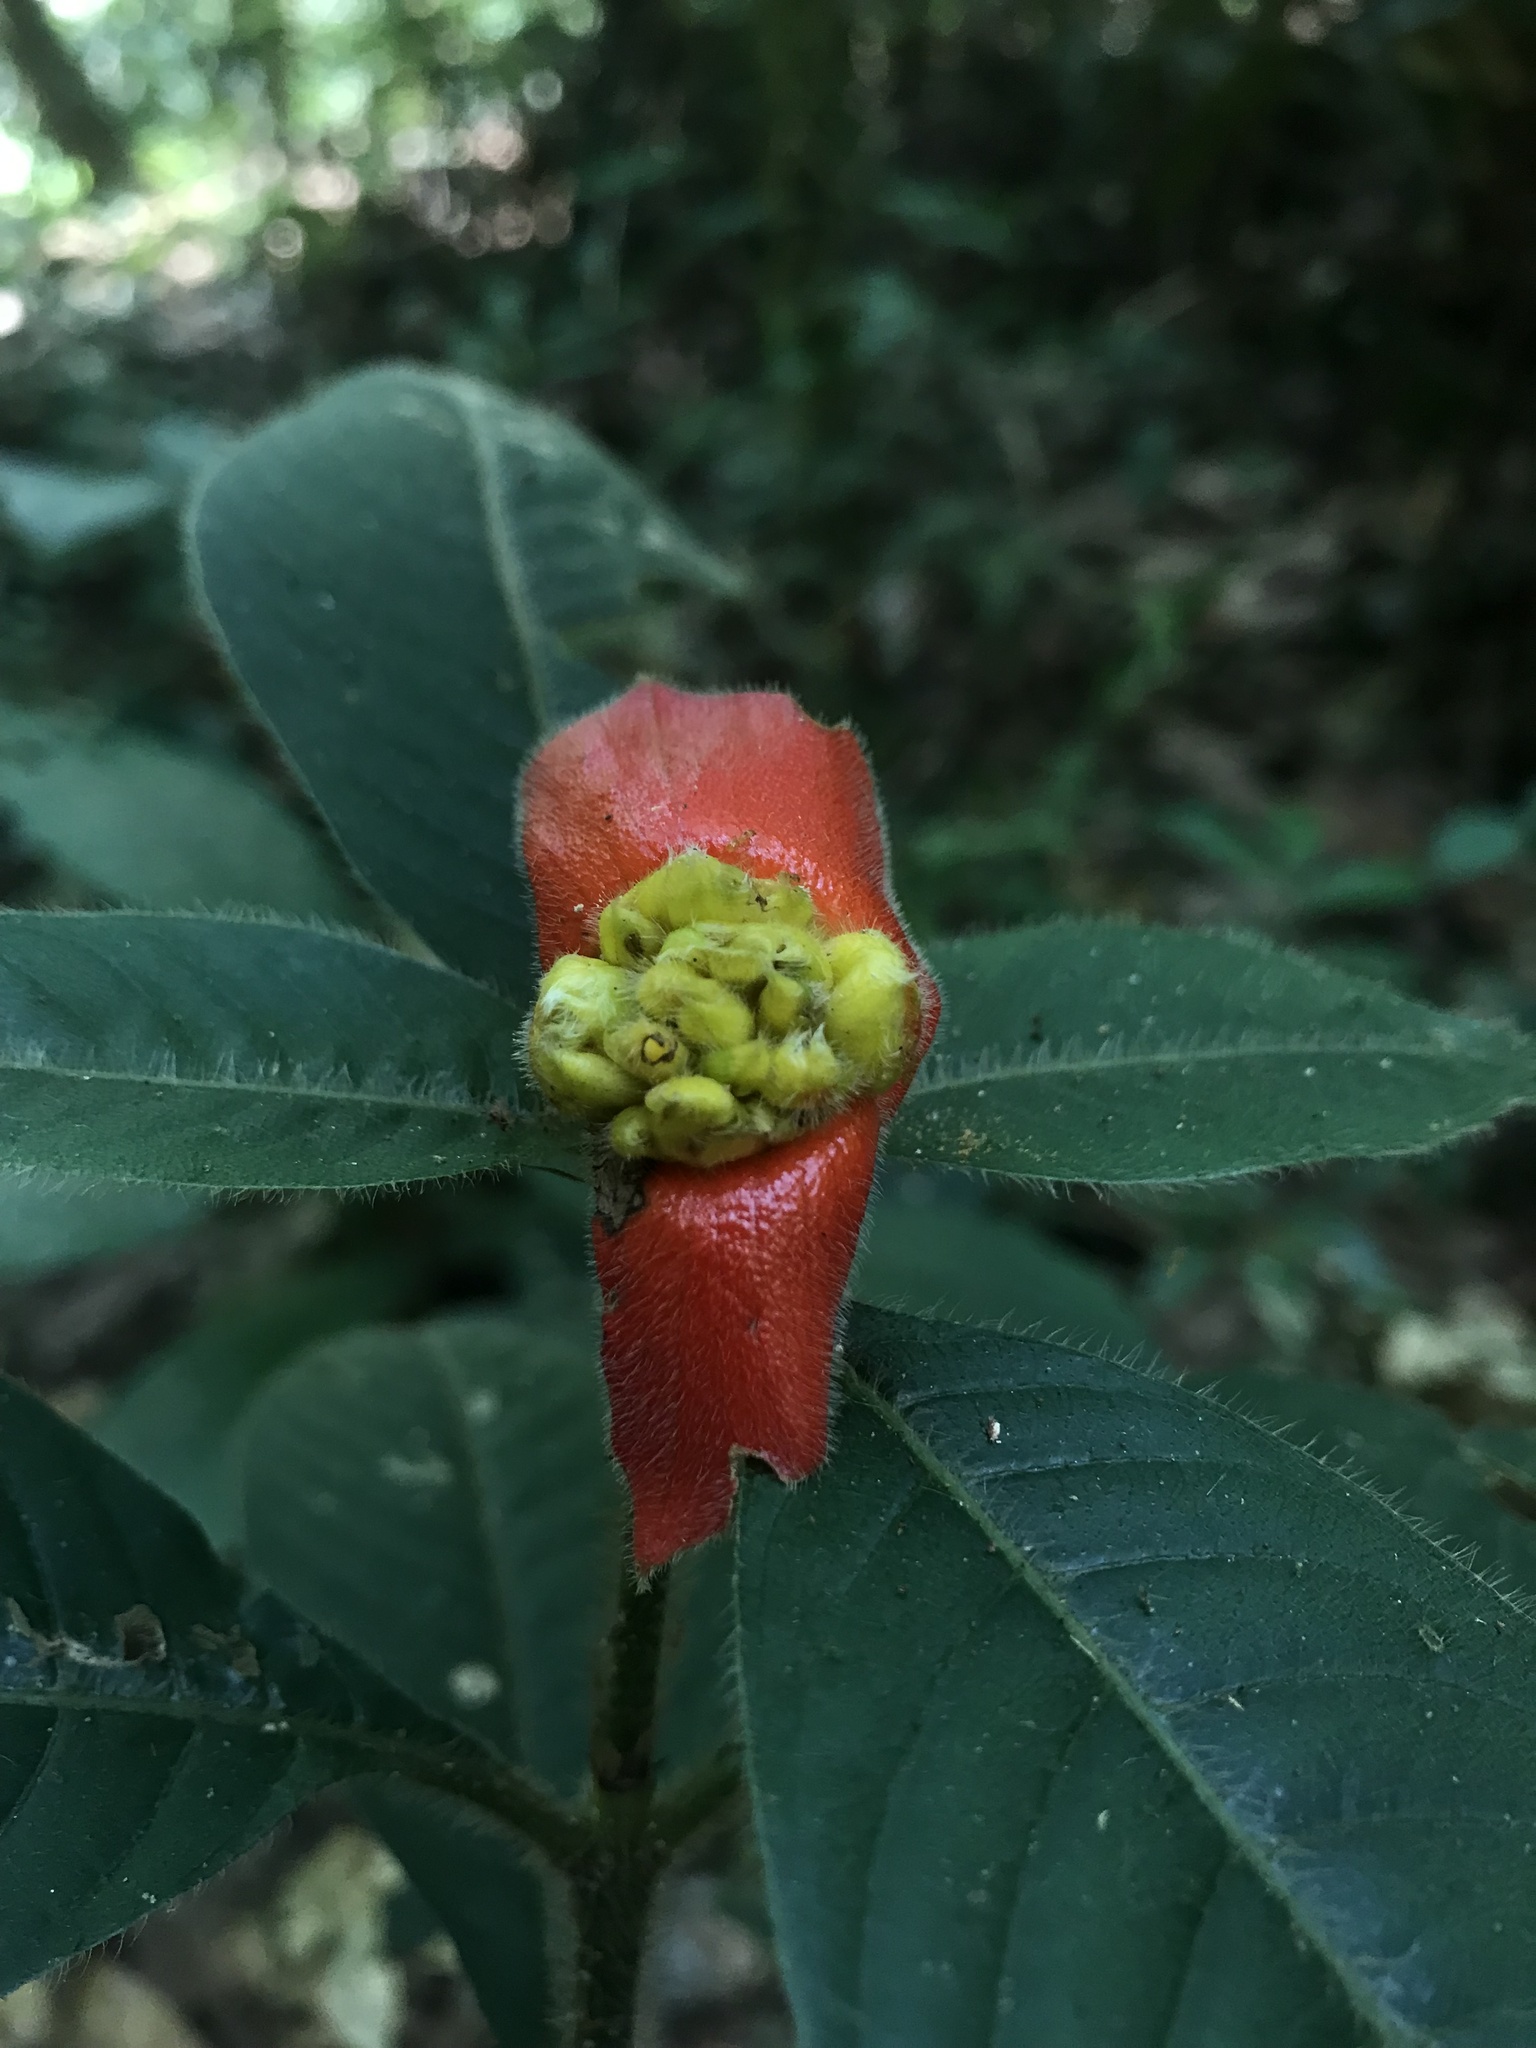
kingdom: Plantae
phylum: Tracheophyta
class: Magnoliopsida
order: Gentianales
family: Rubiaceae
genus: Palicourea
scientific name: Palicourea tomentosa
